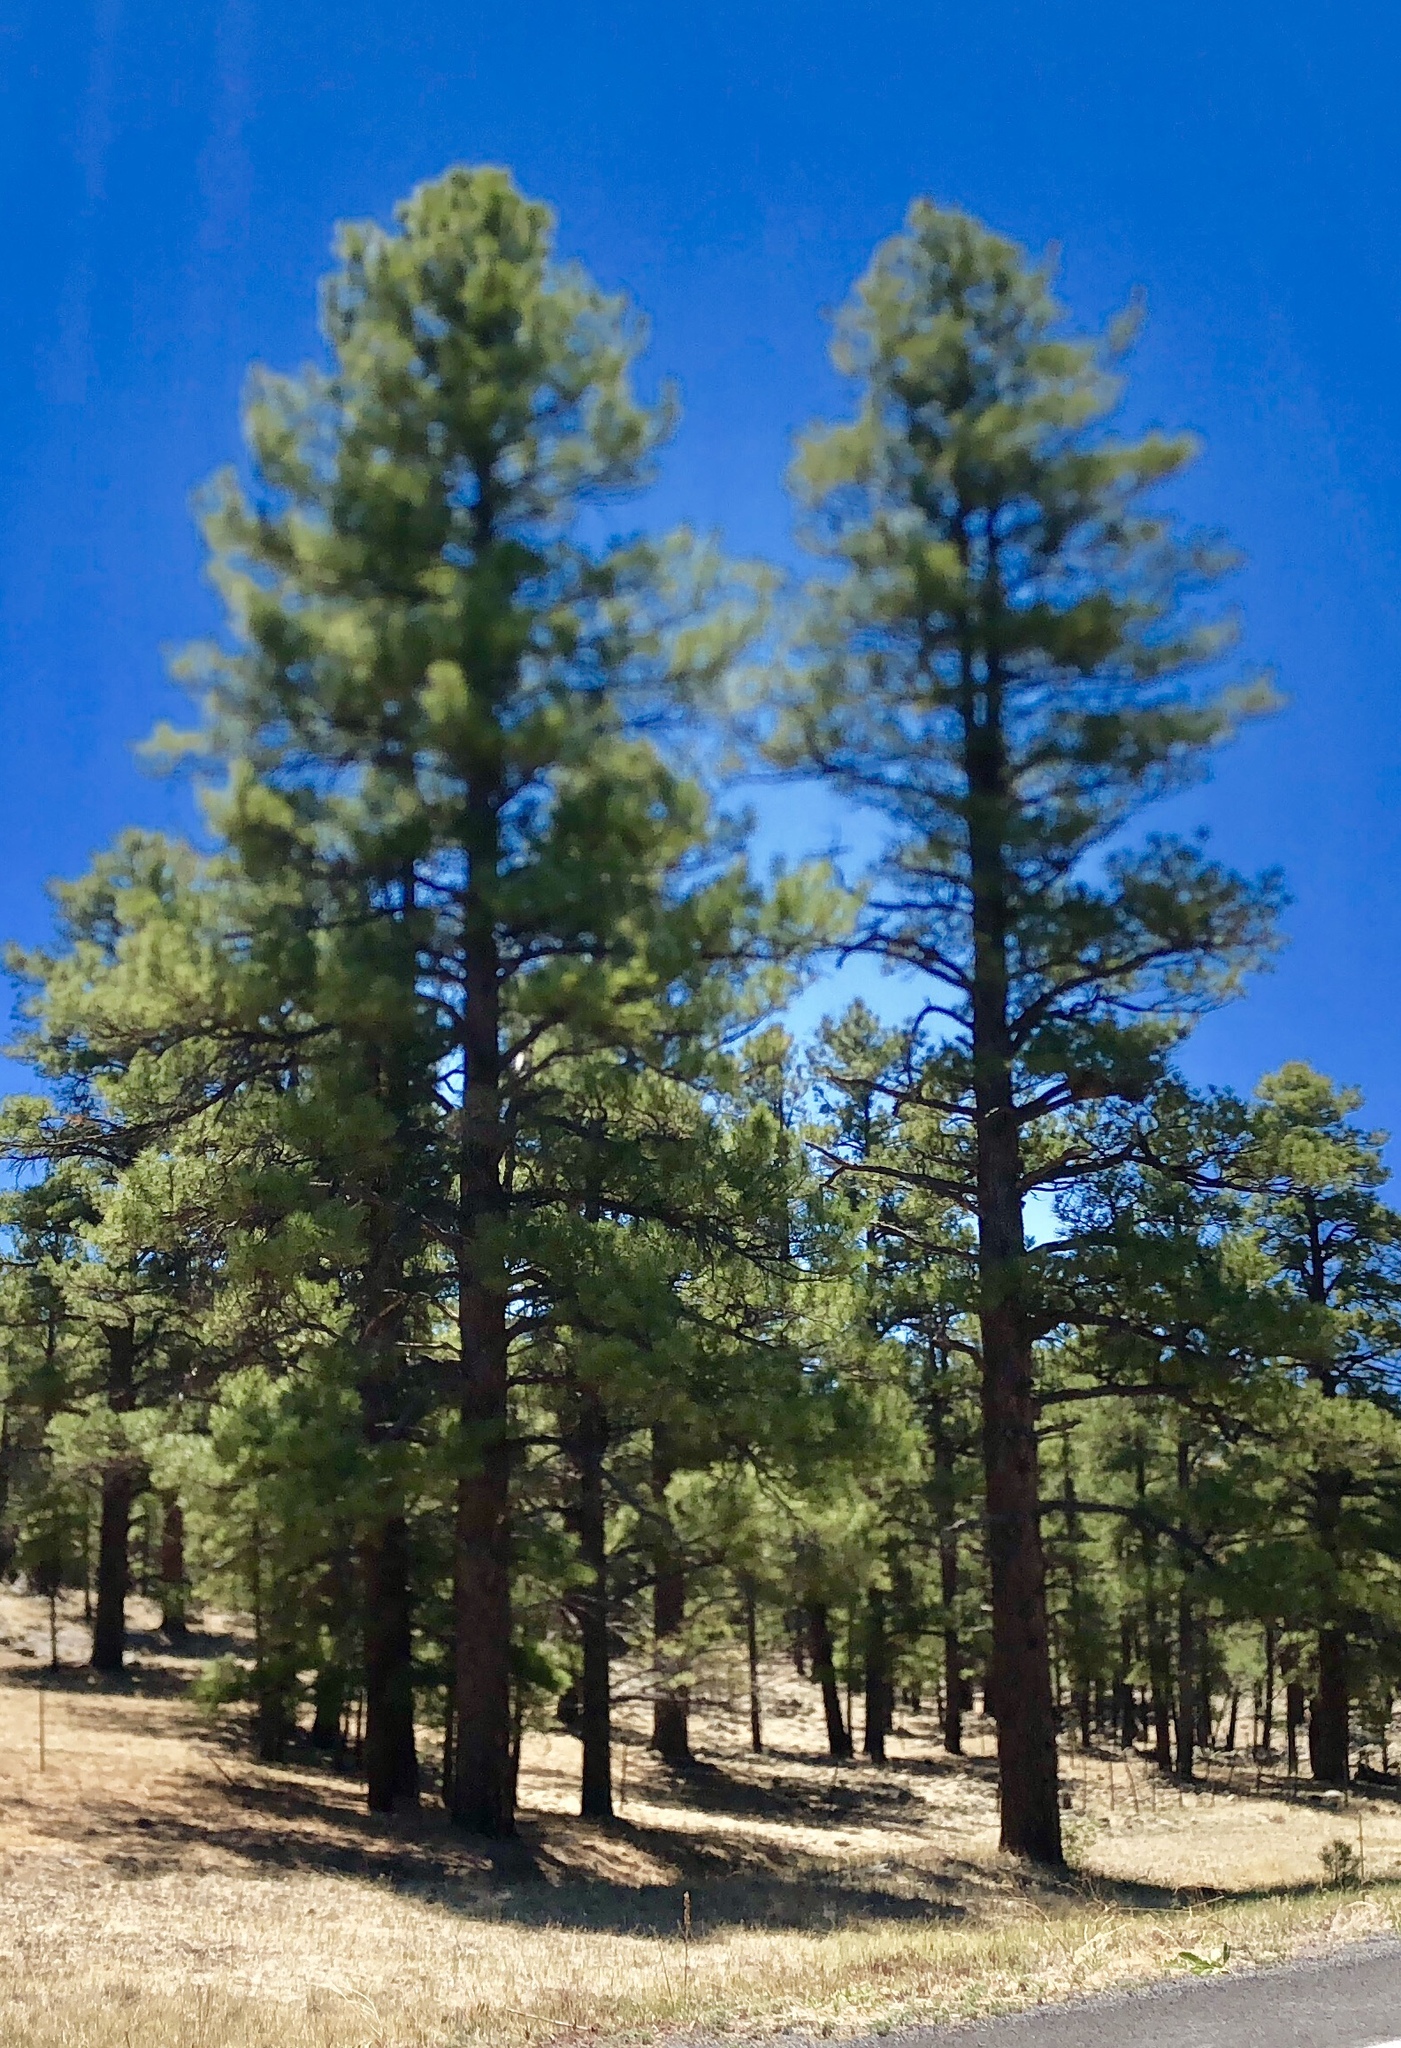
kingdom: Plantae
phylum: Tracheophyta
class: Pinopsida
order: Pinales
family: Pinaceae
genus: Pinus
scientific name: Pinus ponderosa
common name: Western yellow-pine
